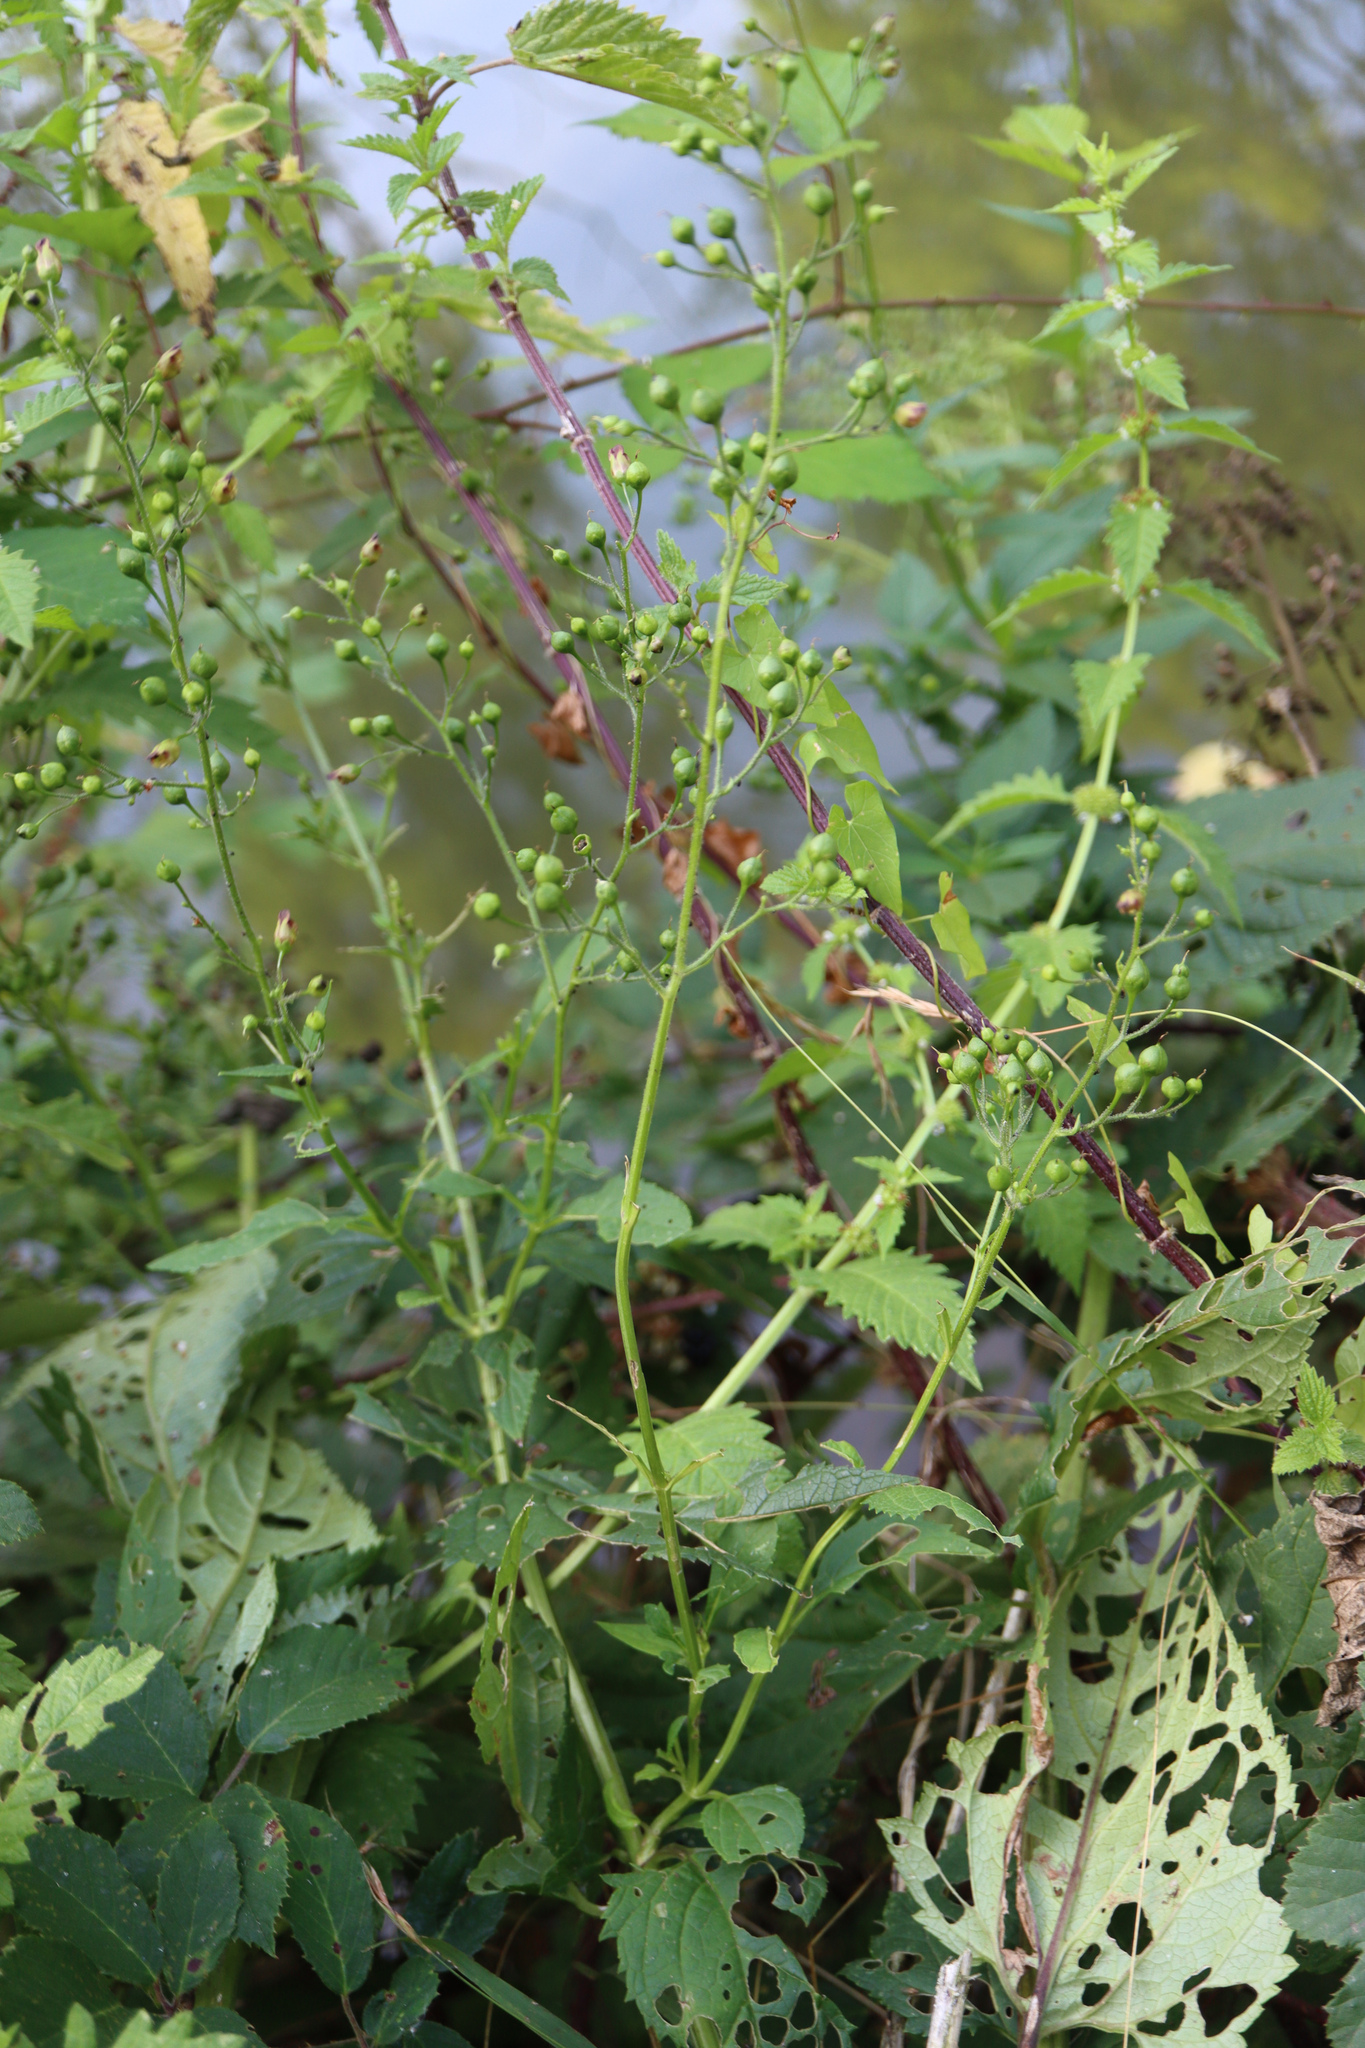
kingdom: Plantae
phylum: Tracheophyta
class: Magnoliopsida
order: Lamiales
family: Scrophulariaceae
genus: Scrophularia
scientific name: Scrophularia nodosa
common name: Common figwort
